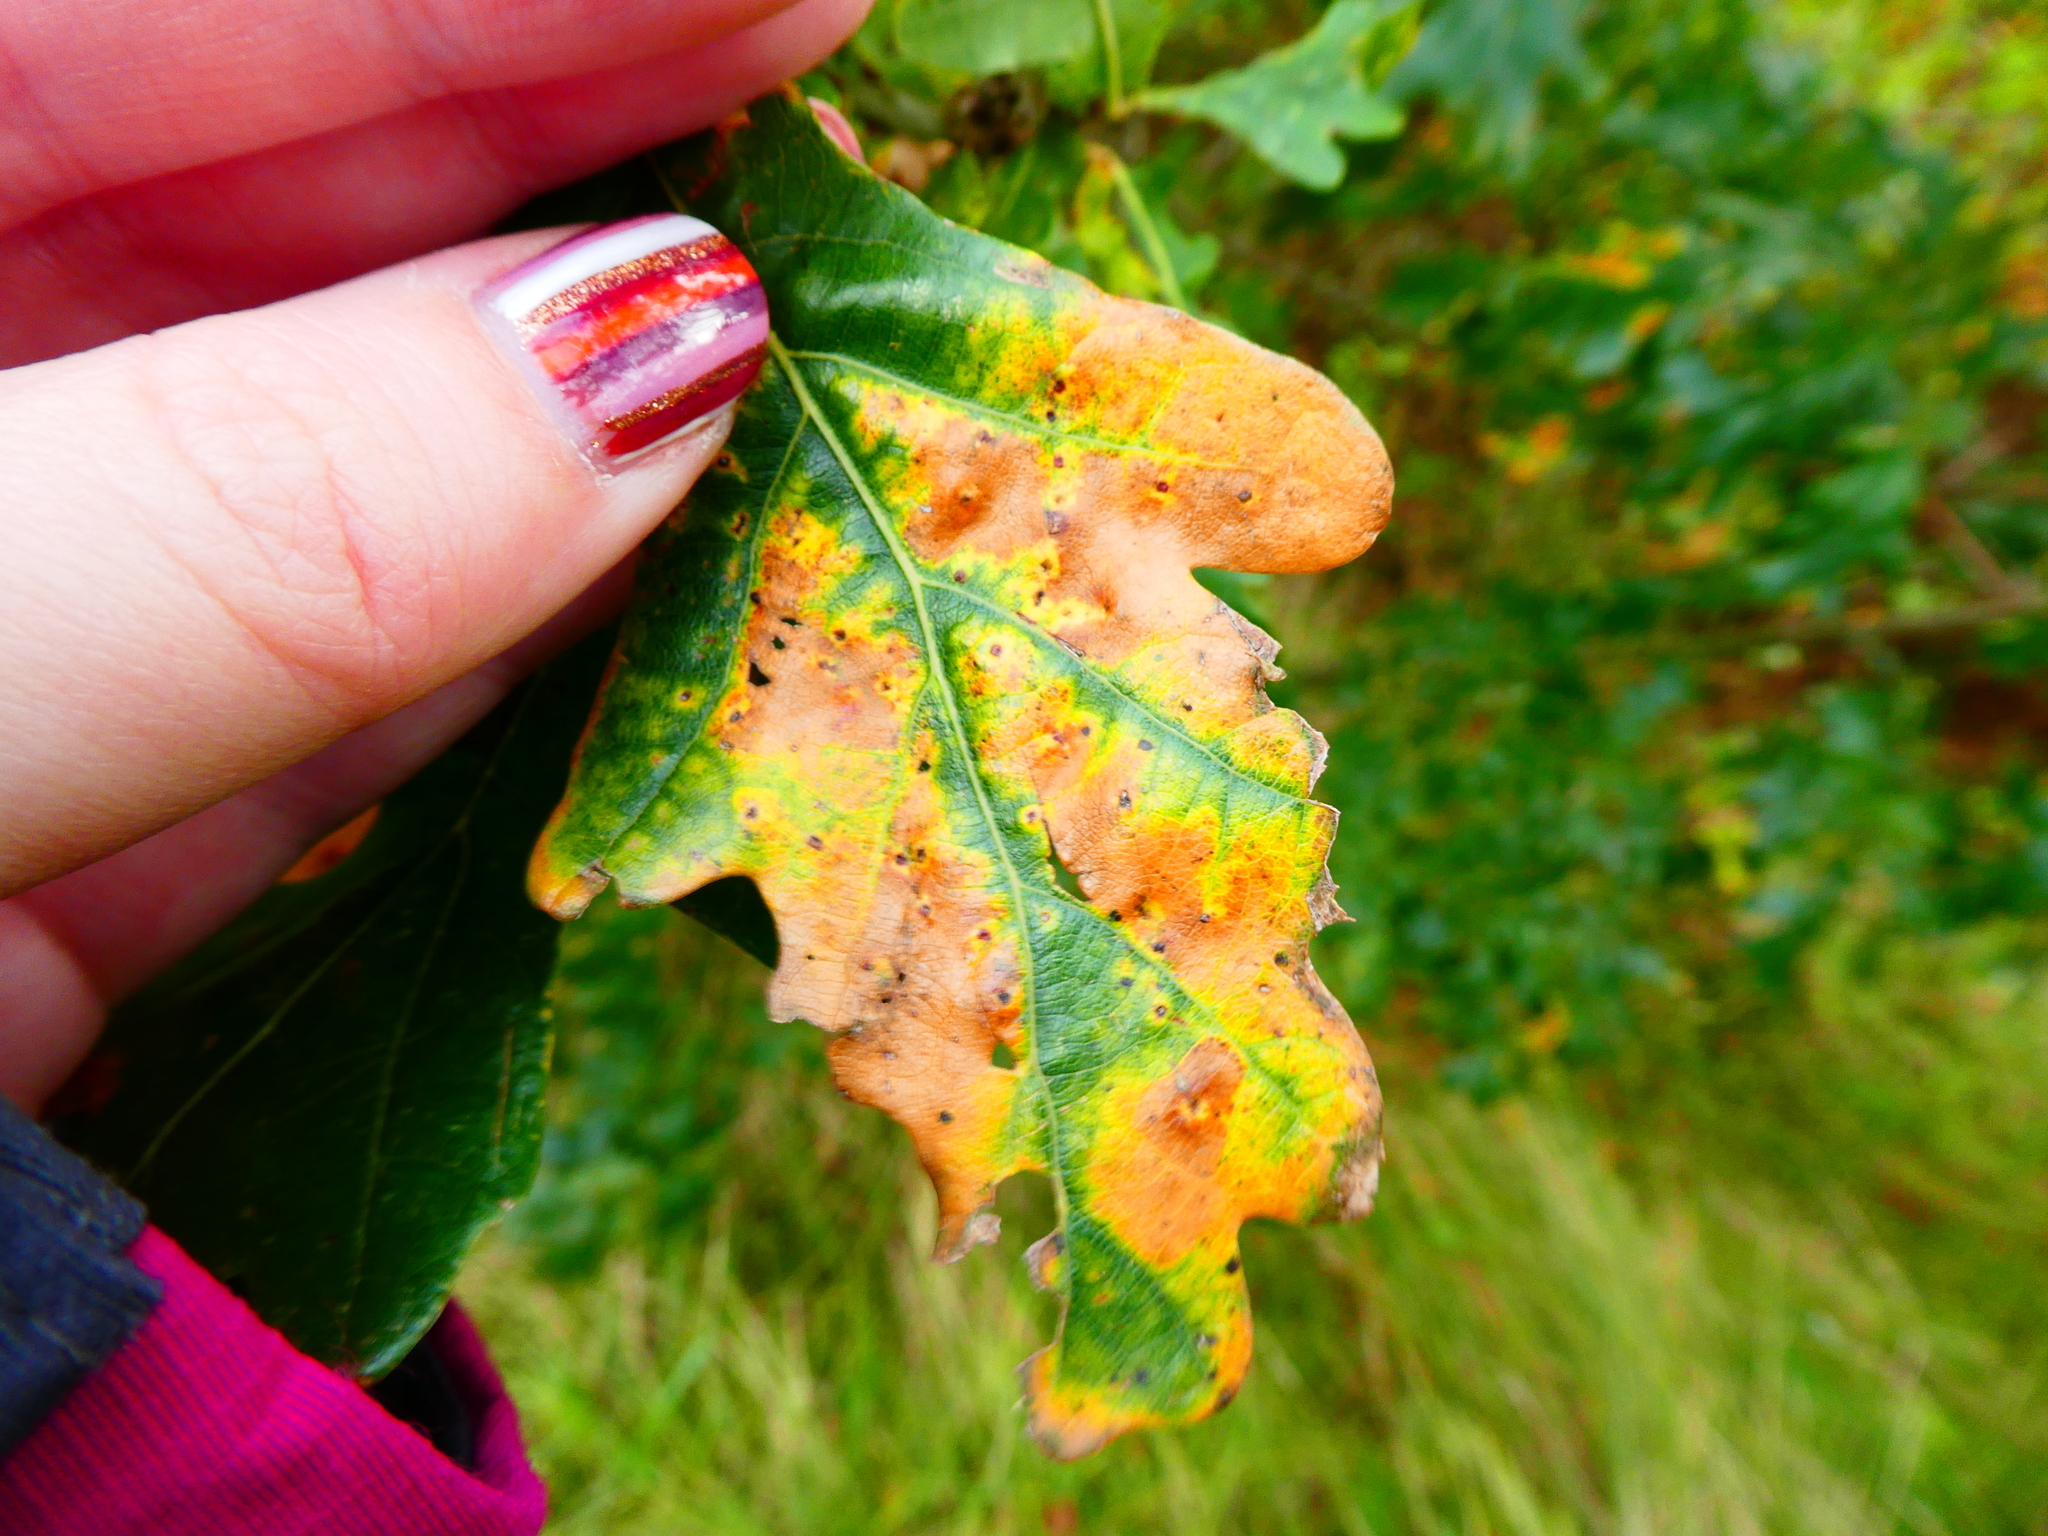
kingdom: Animalia
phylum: Arthropoda
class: Insecta
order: Hymenoptera
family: Cynipidae
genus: Neuroterus
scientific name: Neuroterus numismalis
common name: Silk-button spangle gall
